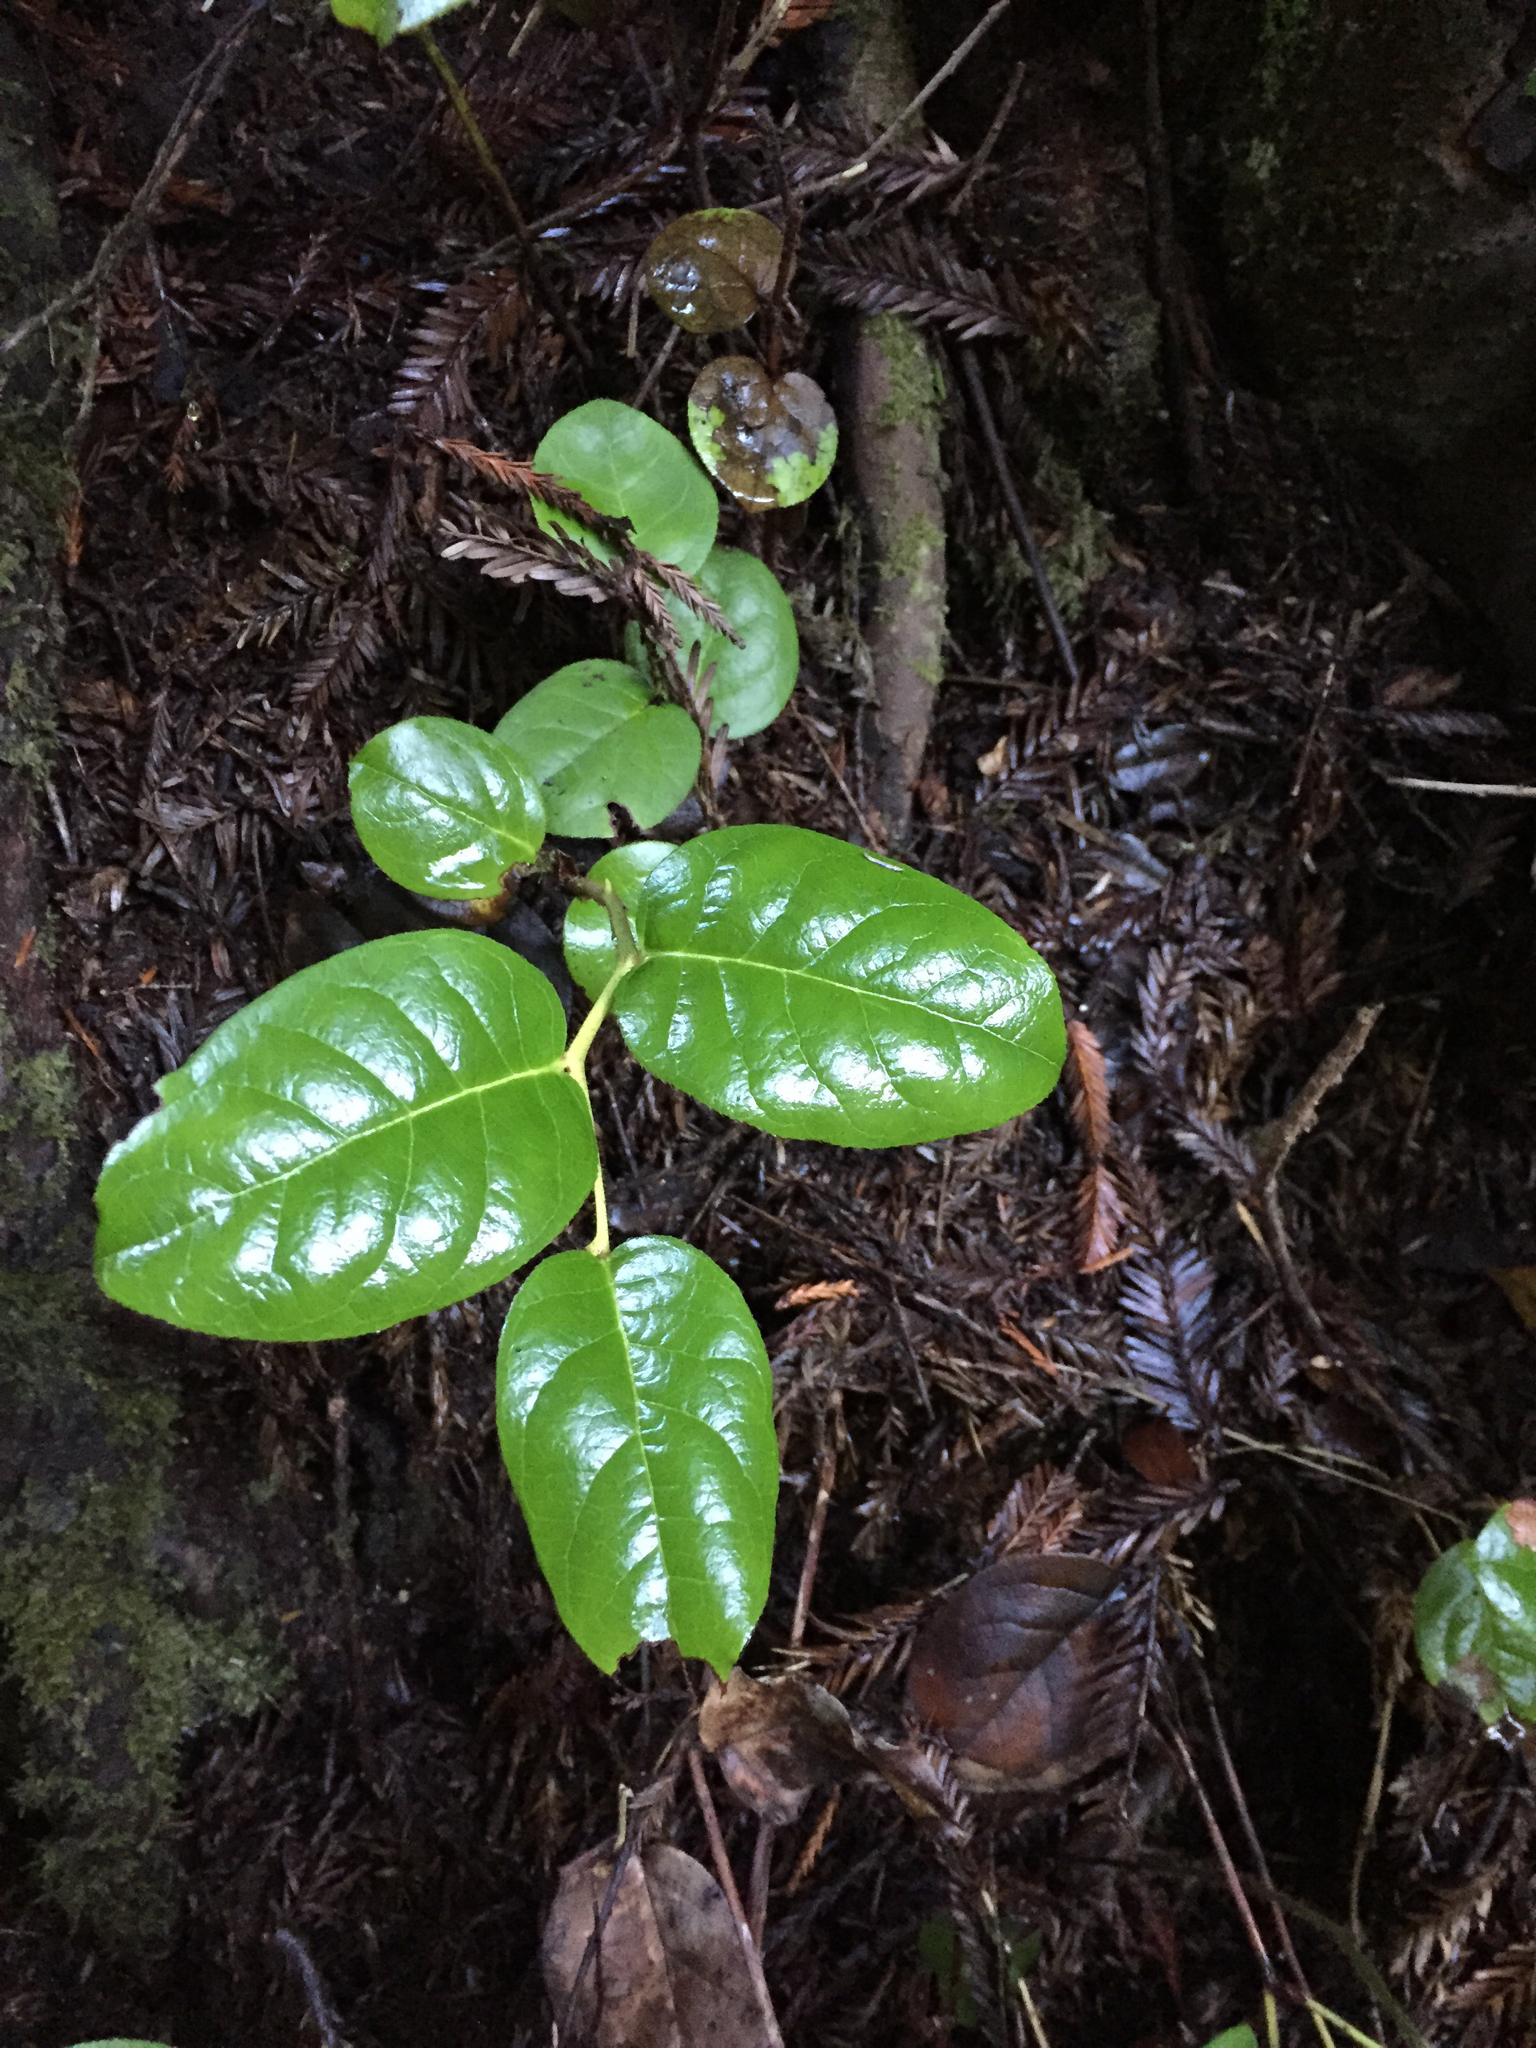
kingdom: Plantae
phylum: Tracheophyta
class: Magnoliopsida
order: Ericales
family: Ericaceae
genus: Gaultheria
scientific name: Gaultheria shallon
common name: Shallon
